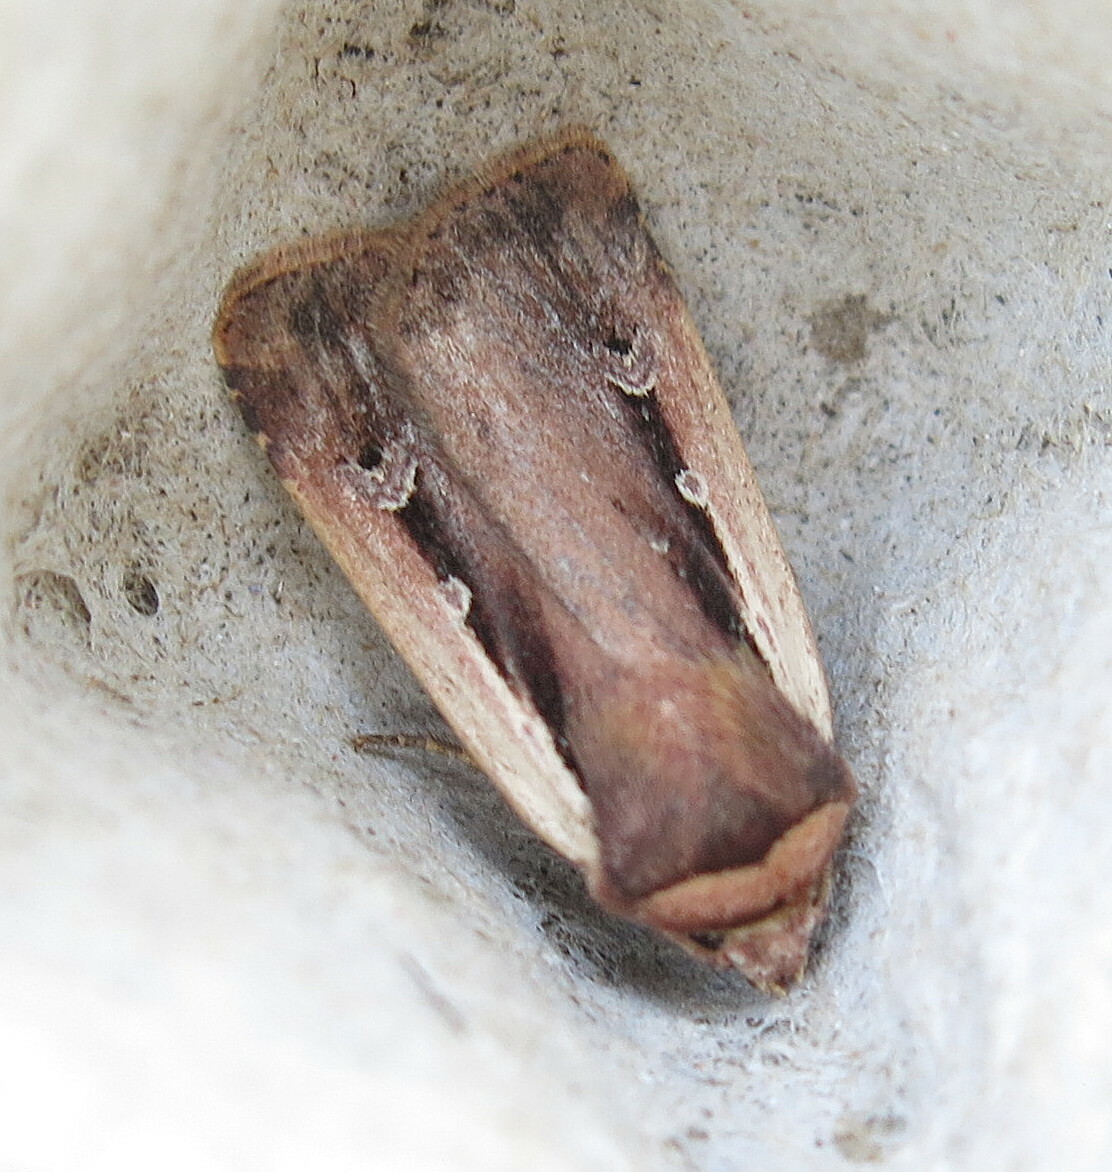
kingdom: Animalia
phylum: Arthropoda
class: Insecta
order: Lepidoptera
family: Noctuidae
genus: Ochropleura
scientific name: Ochropleura plecta
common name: Flame shoulder
